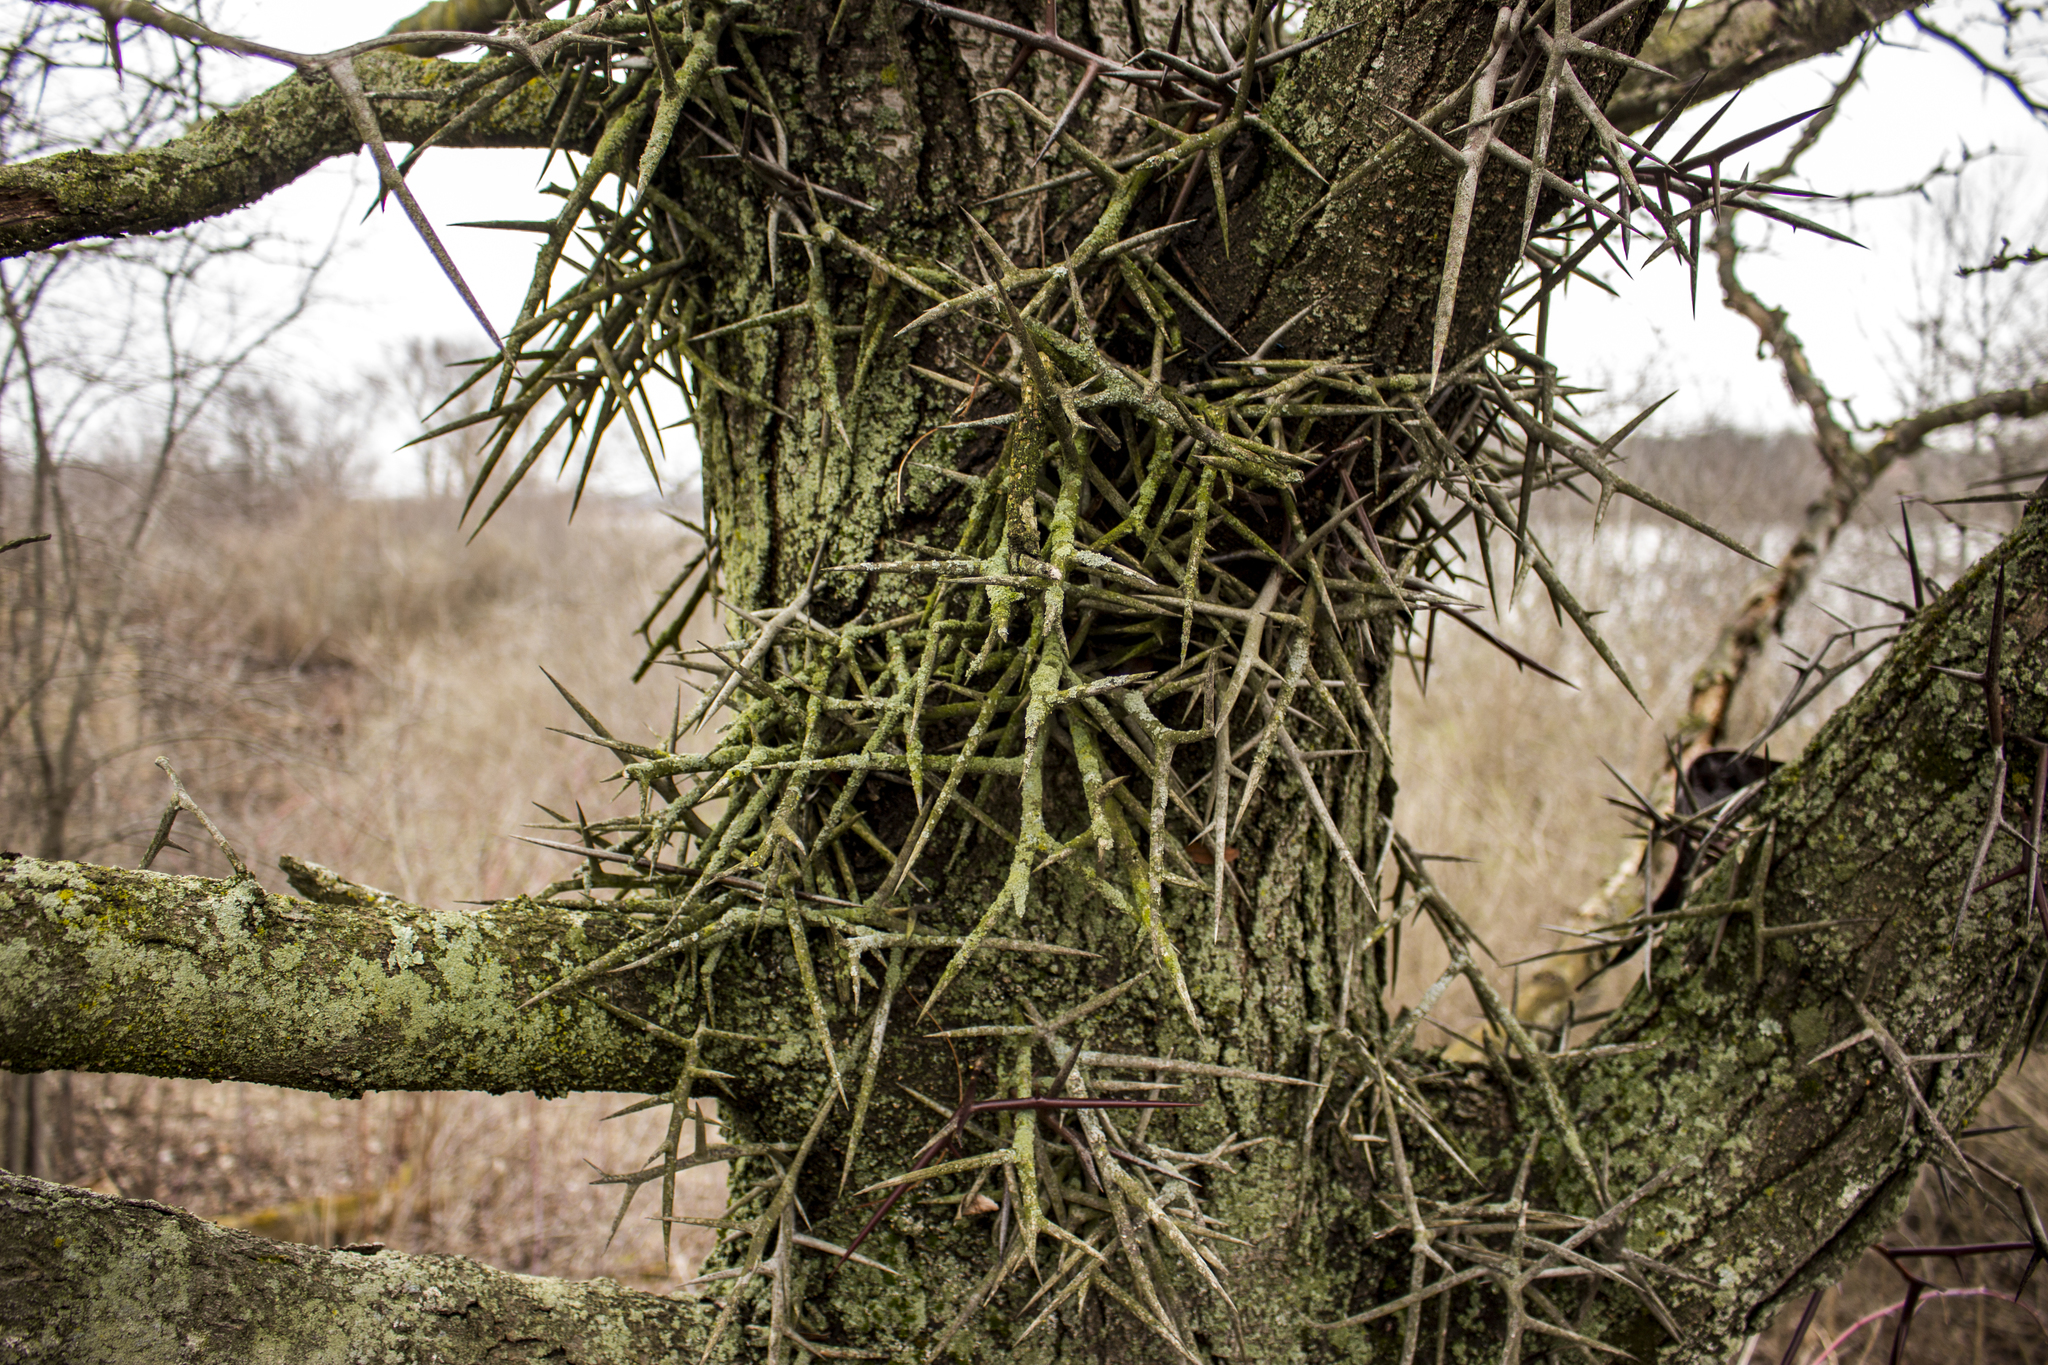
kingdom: Plantae
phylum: Tracheophyta
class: Magnoliopsida
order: Fabales
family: Fabaceae
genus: Gleditsia
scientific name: Gleditsia triacanthos
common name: Common honeylocust
